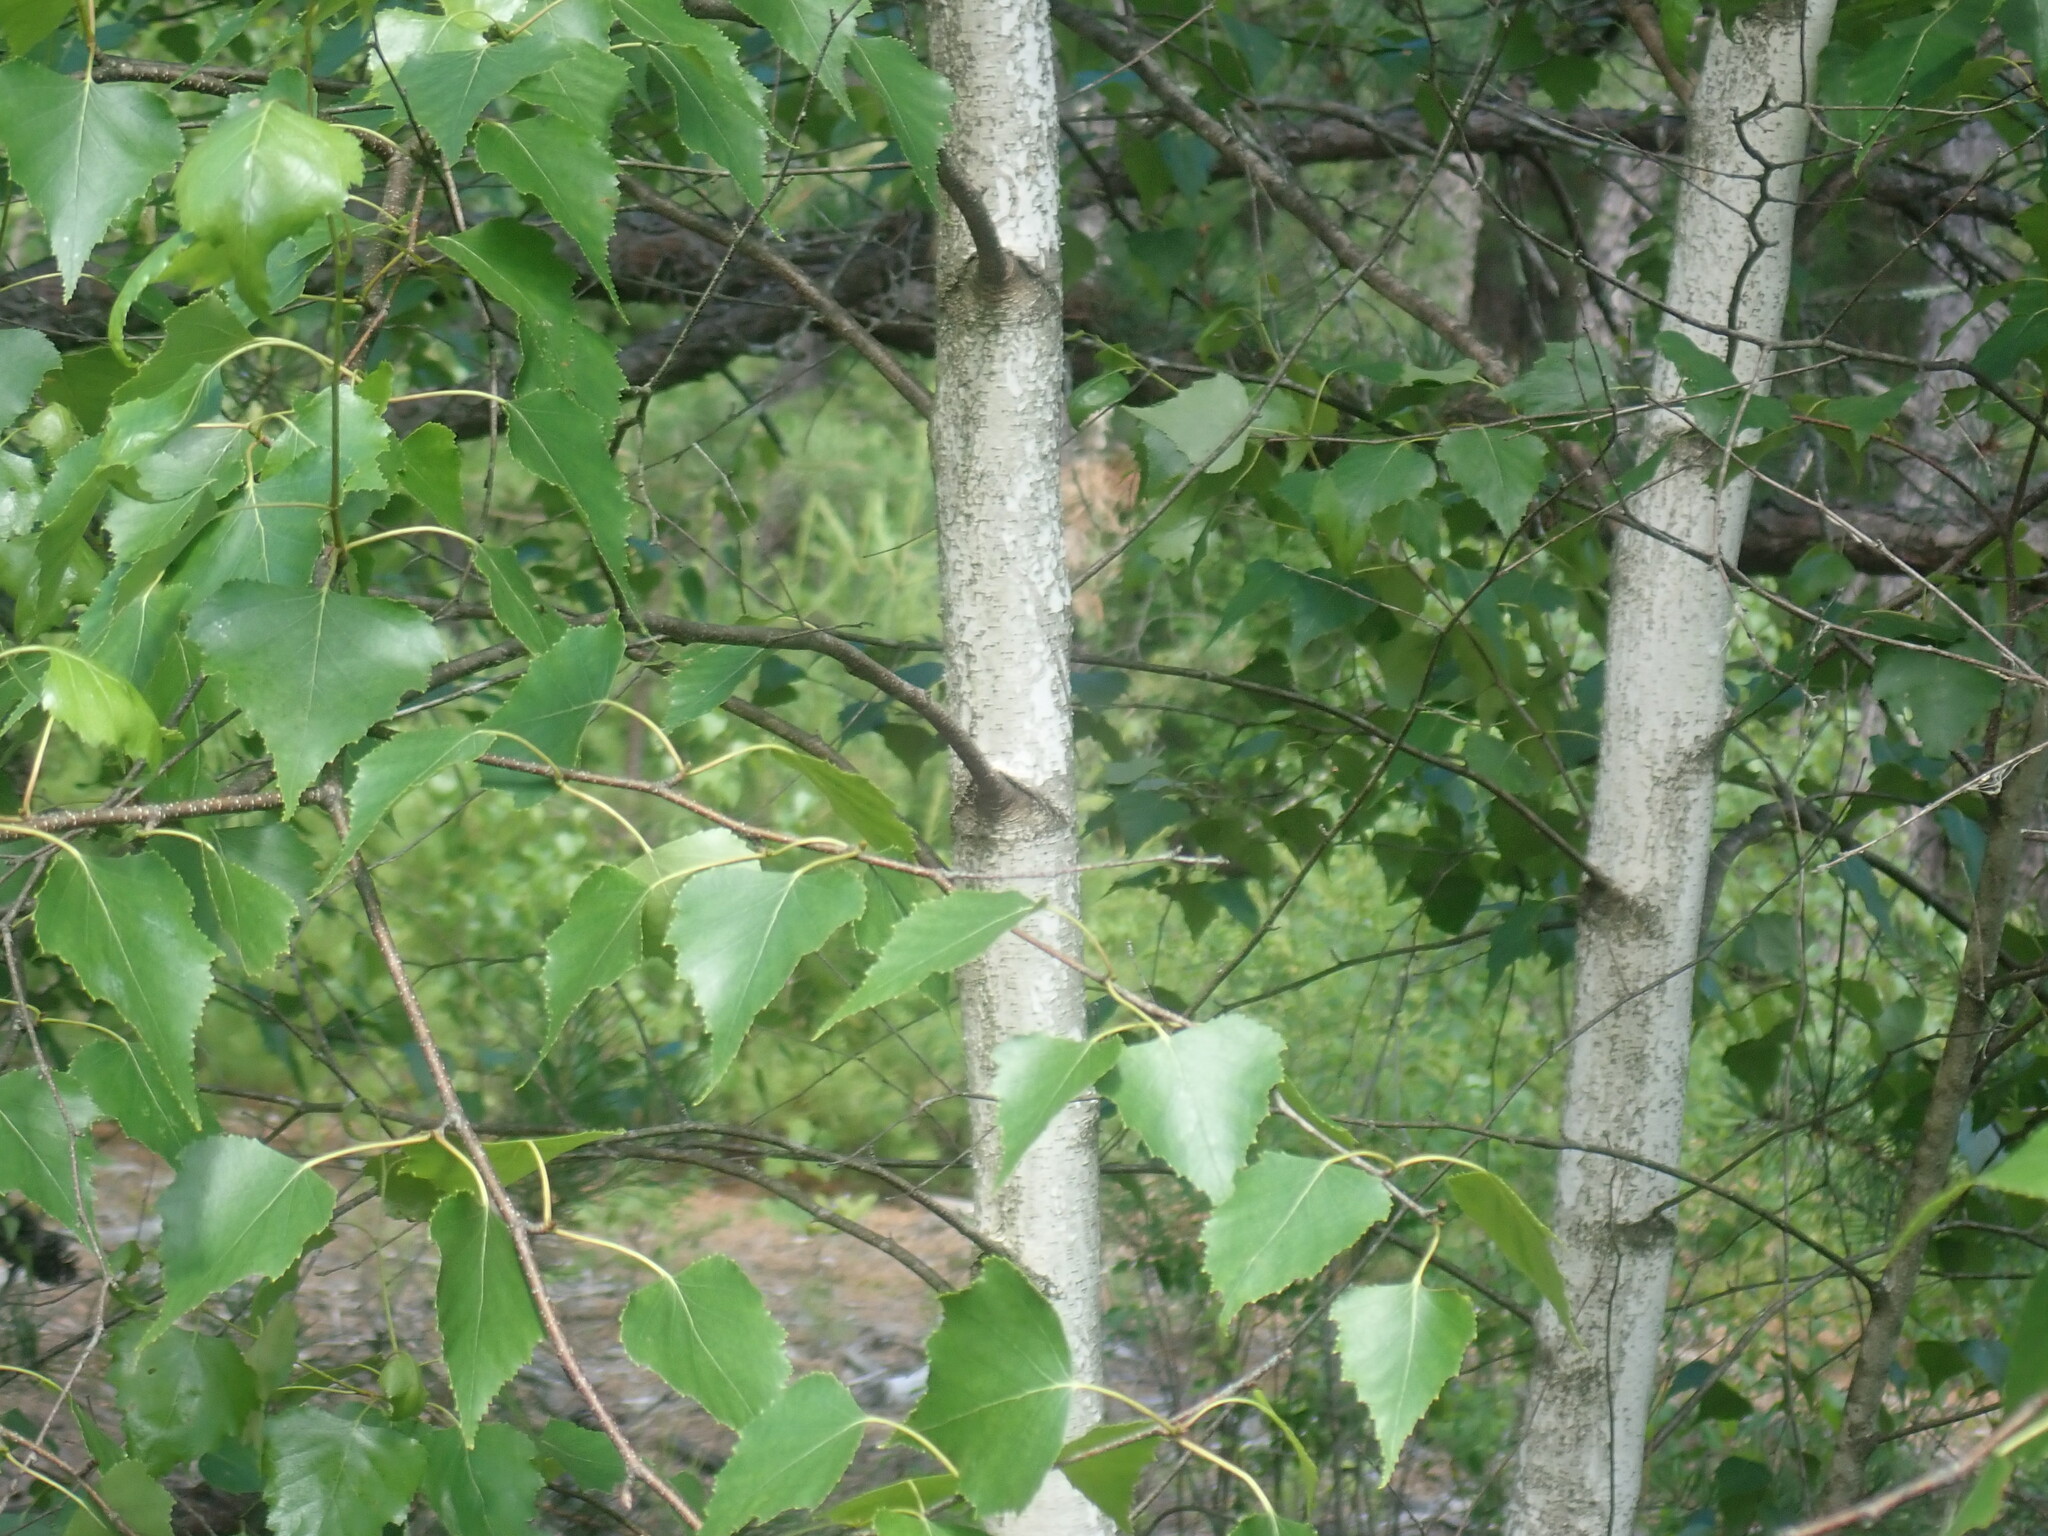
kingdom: Plantae
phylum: Tracheophyta
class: Magnoliopsida
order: Fagales
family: Betulaceae
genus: Betula
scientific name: Betula populifolia
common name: Fire birch
